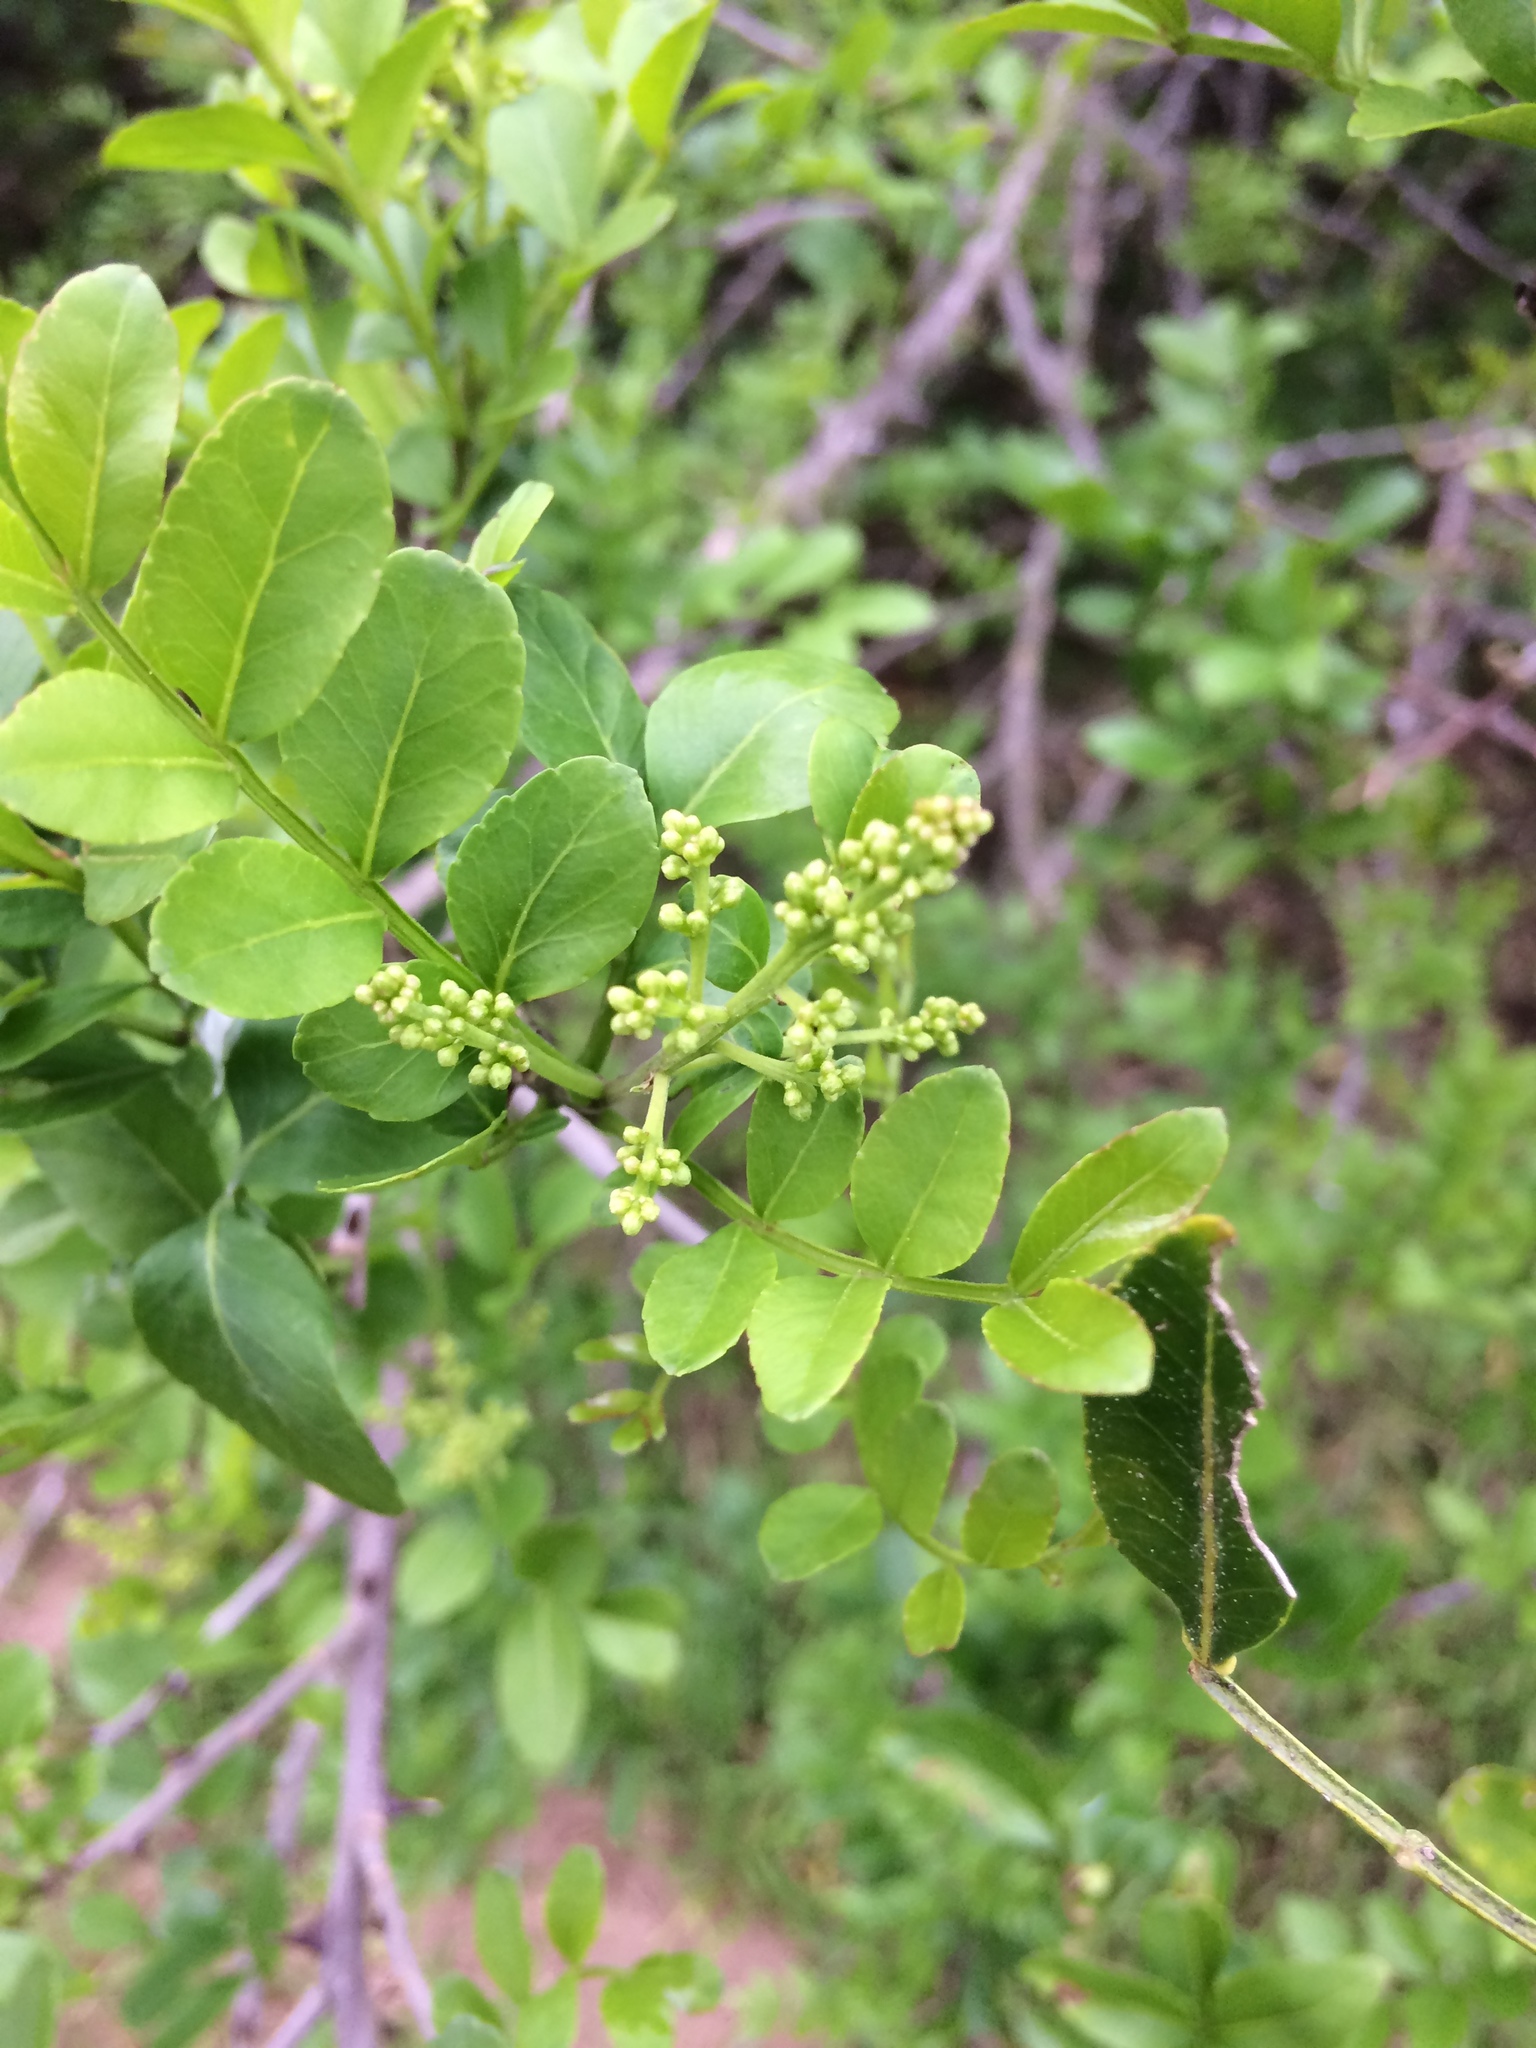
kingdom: Plantae
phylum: Tracheophyta
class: Magnoliopsida
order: Sapindales
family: Rutaceae
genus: Zanthoxylum
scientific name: Zanthoxylum capense
